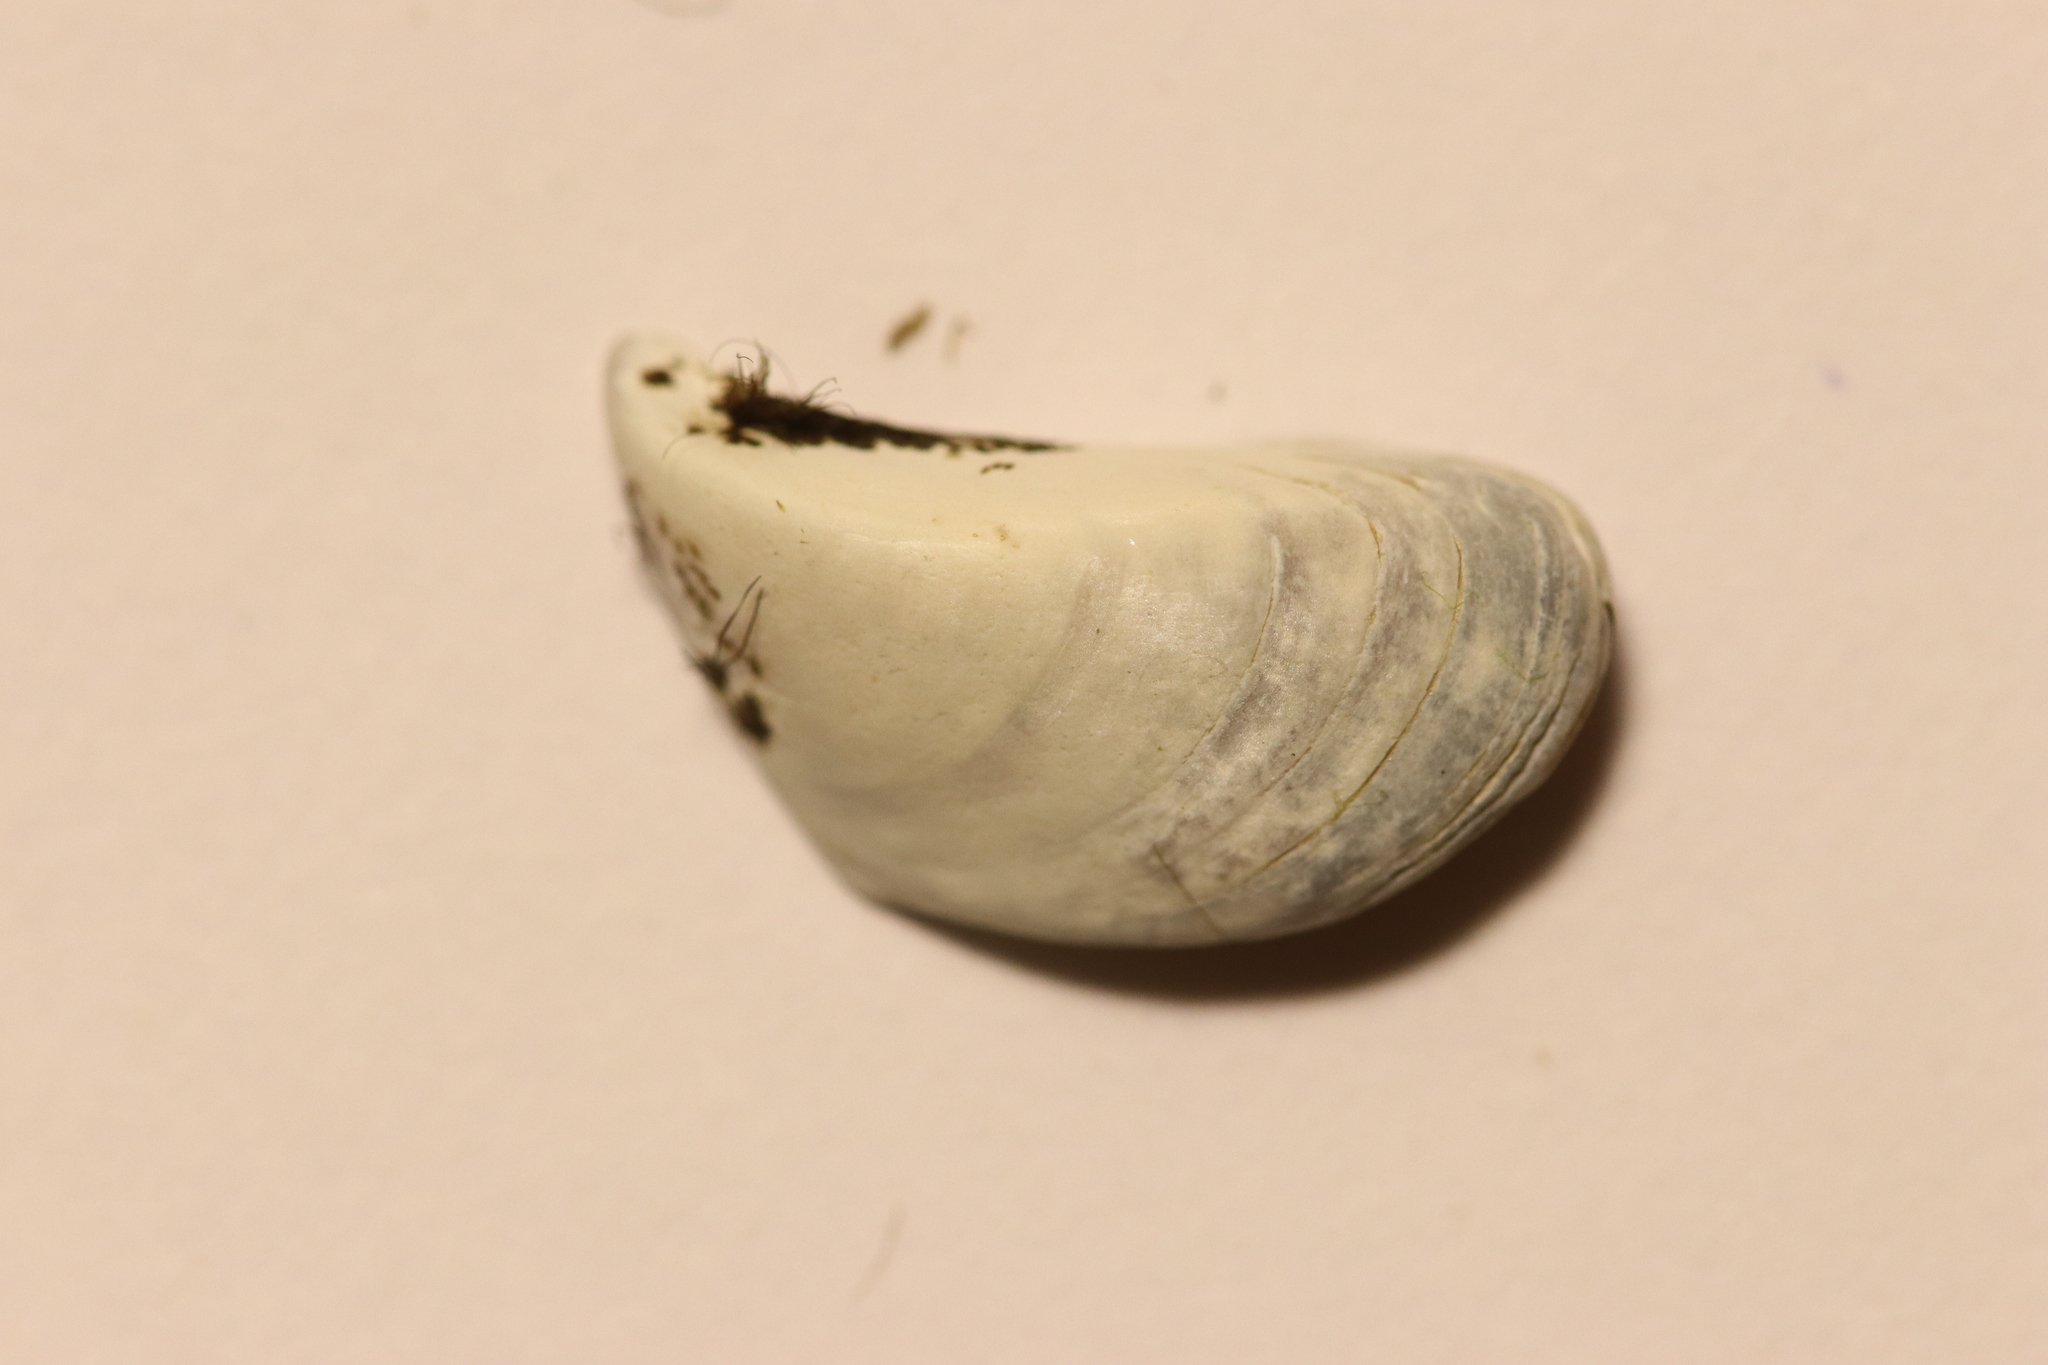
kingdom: Animalia
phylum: Mollusca
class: Bivalvia
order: Myida
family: Dreissenidae
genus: Dreissena
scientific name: Dreissena polymorpha
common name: Zebra mussel
